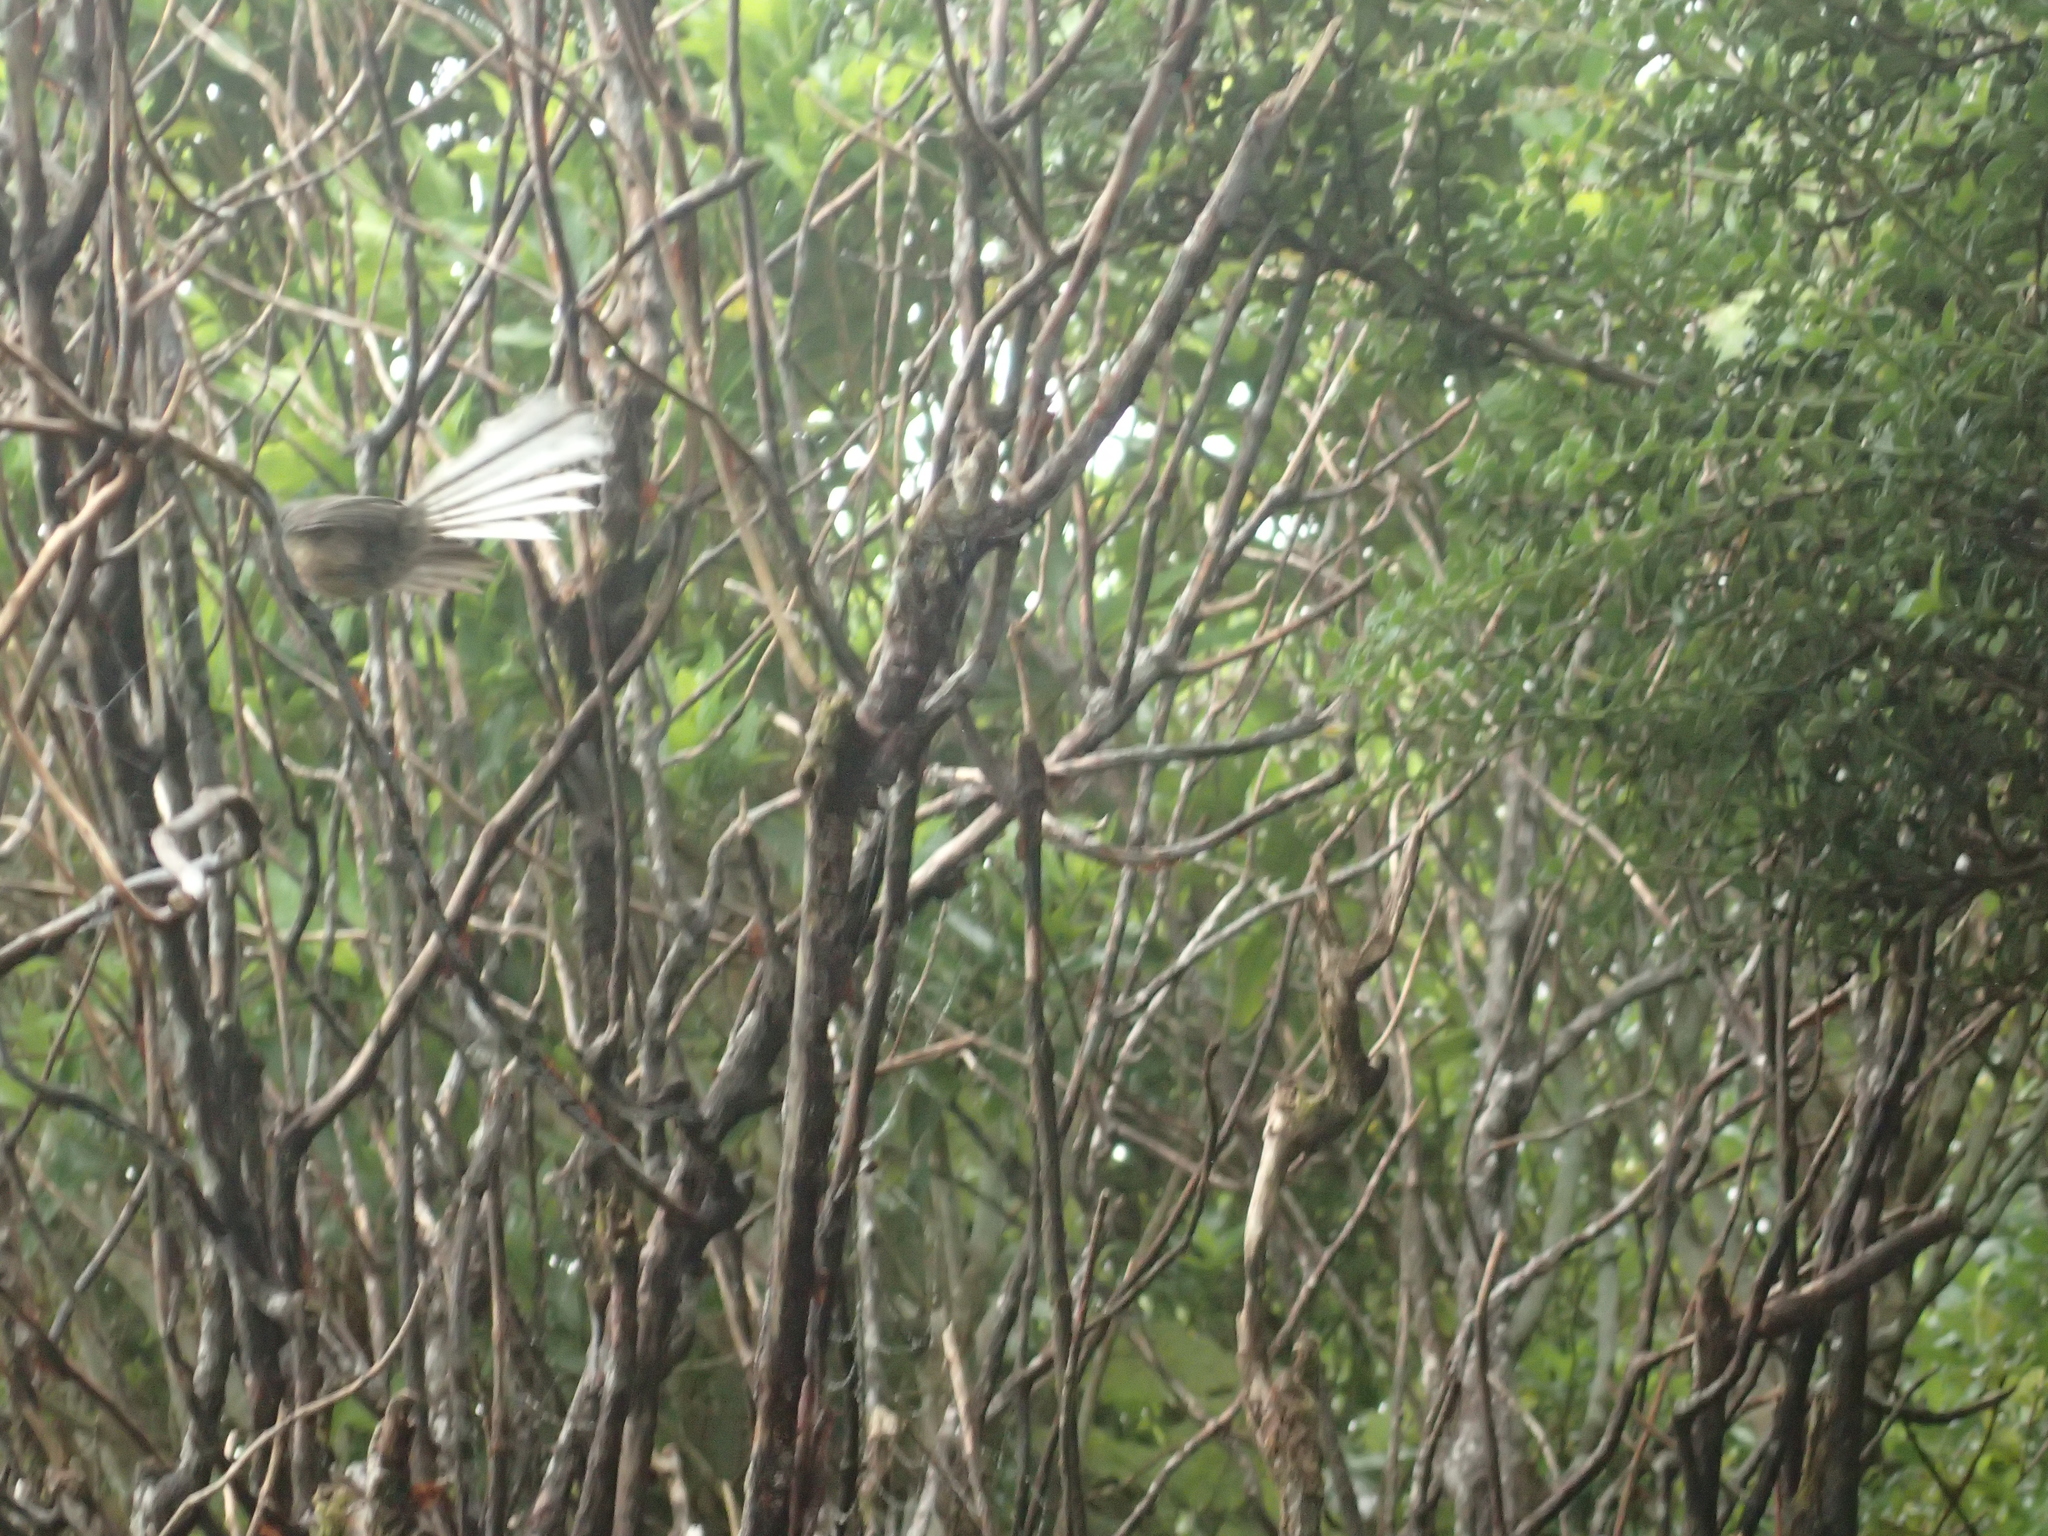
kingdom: Animalia
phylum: Chordata
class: Aves
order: Passeriformes
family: Rhipiduridae
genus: Rhipidura
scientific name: Rhipidura fuliginosa
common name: New zealand fantail
